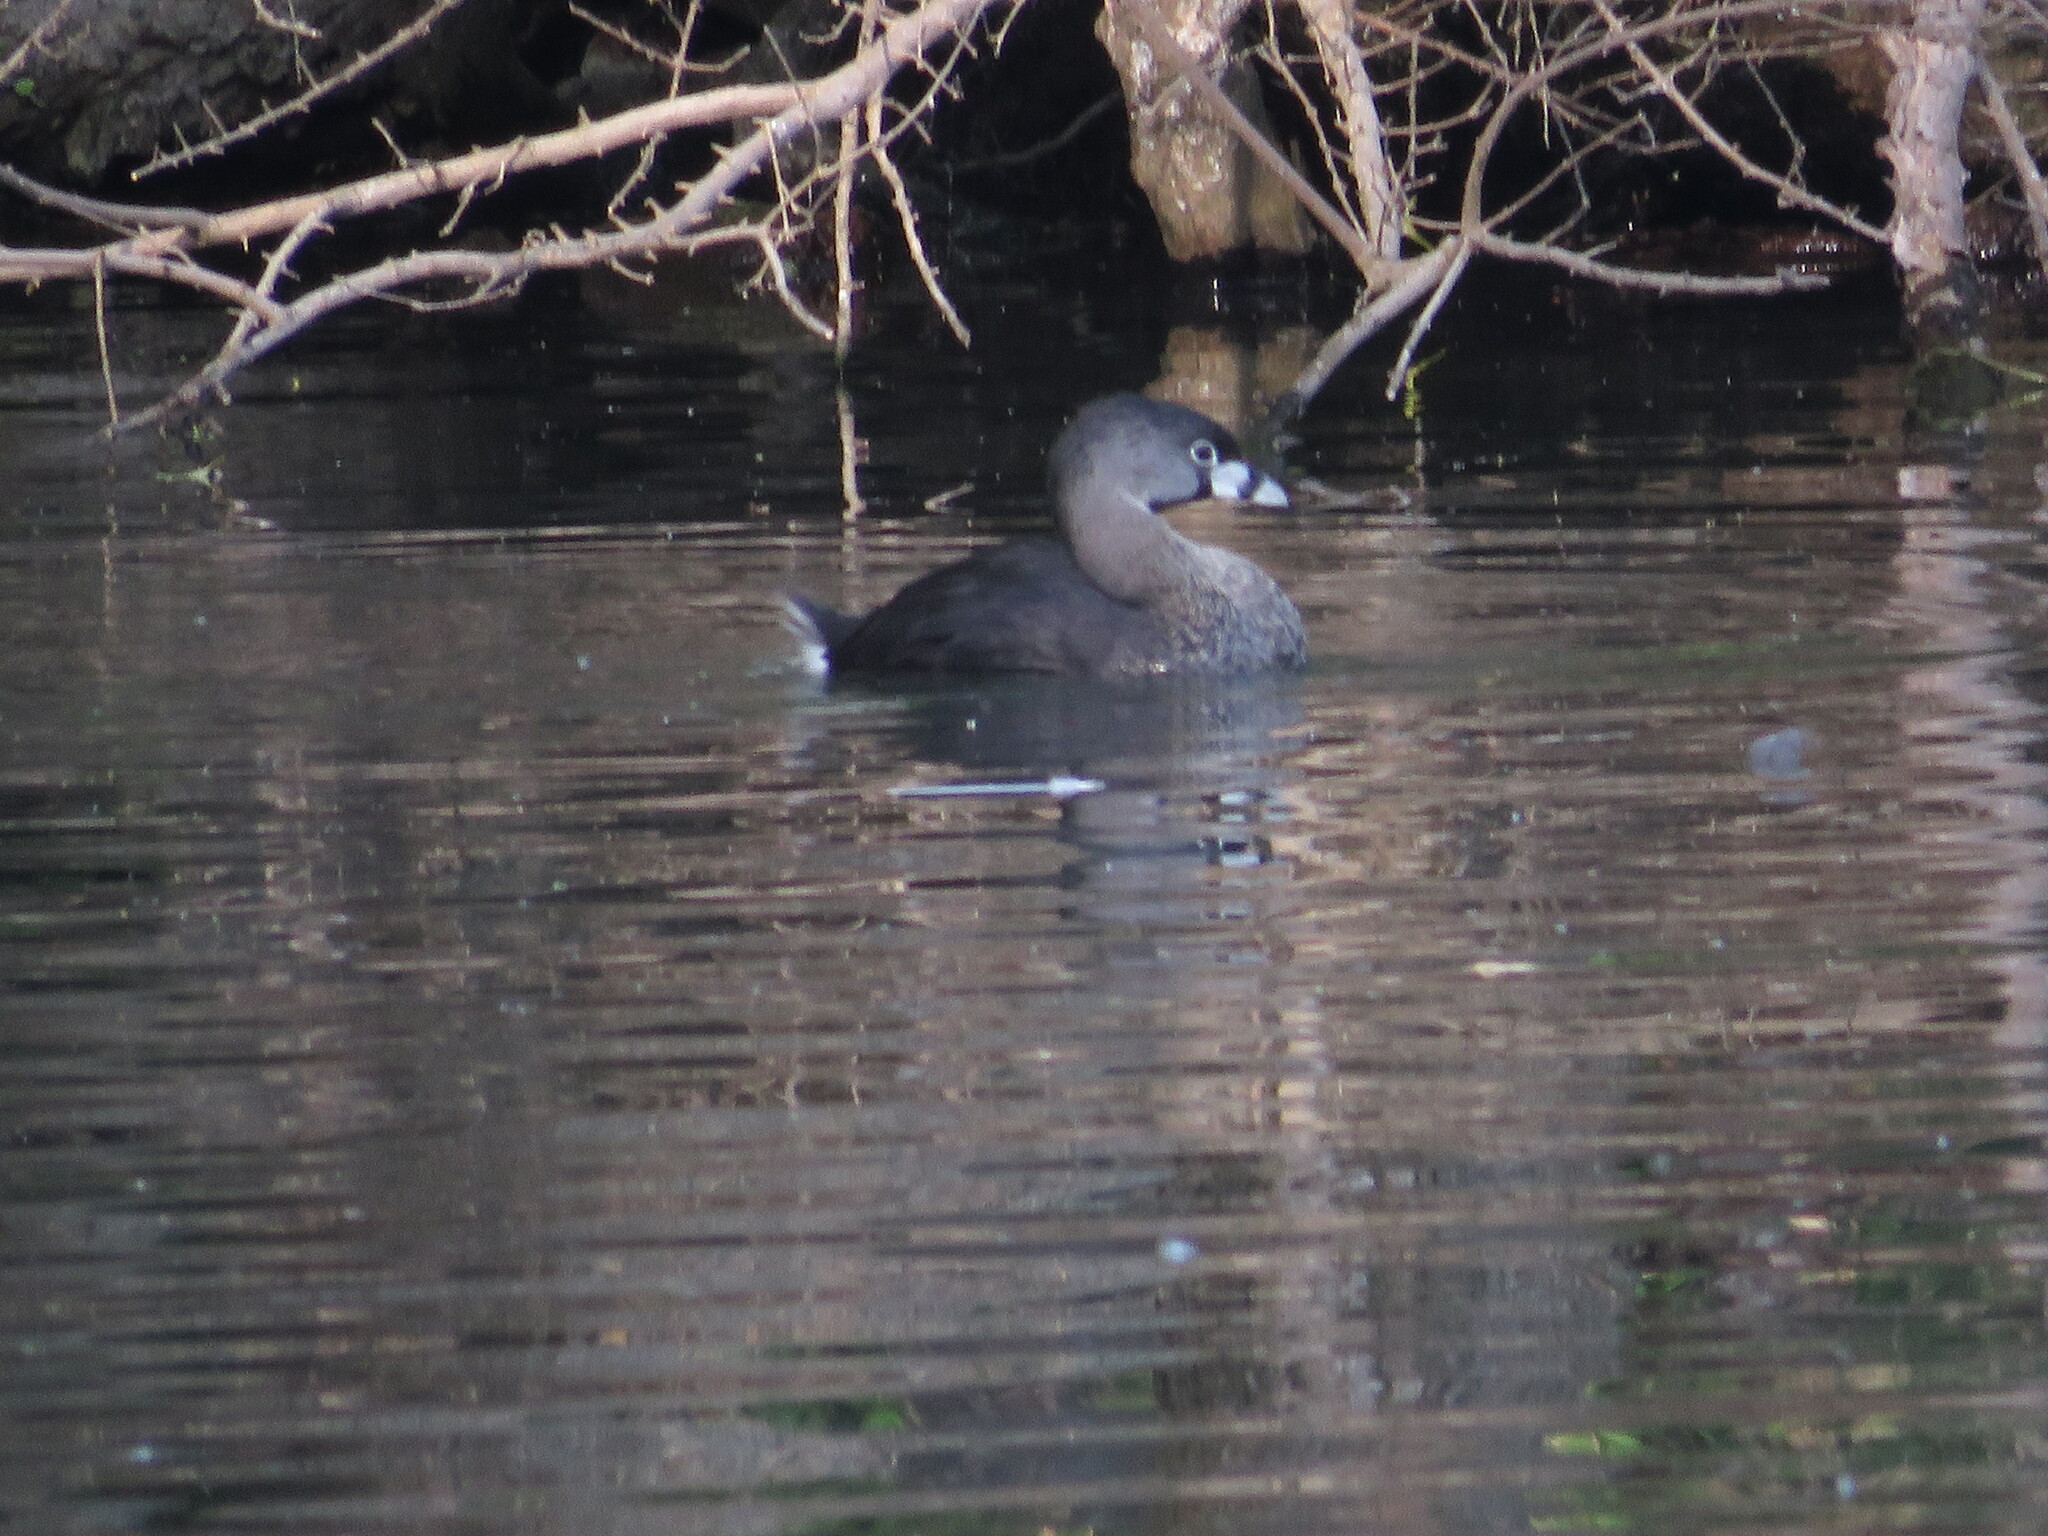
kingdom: Animalia
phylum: Chordata
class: Aves
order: Podicipediformes
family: Podicipedidae
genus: Podilymbus
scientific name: Podilymbus podiceps
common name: Pied-billed grebe
